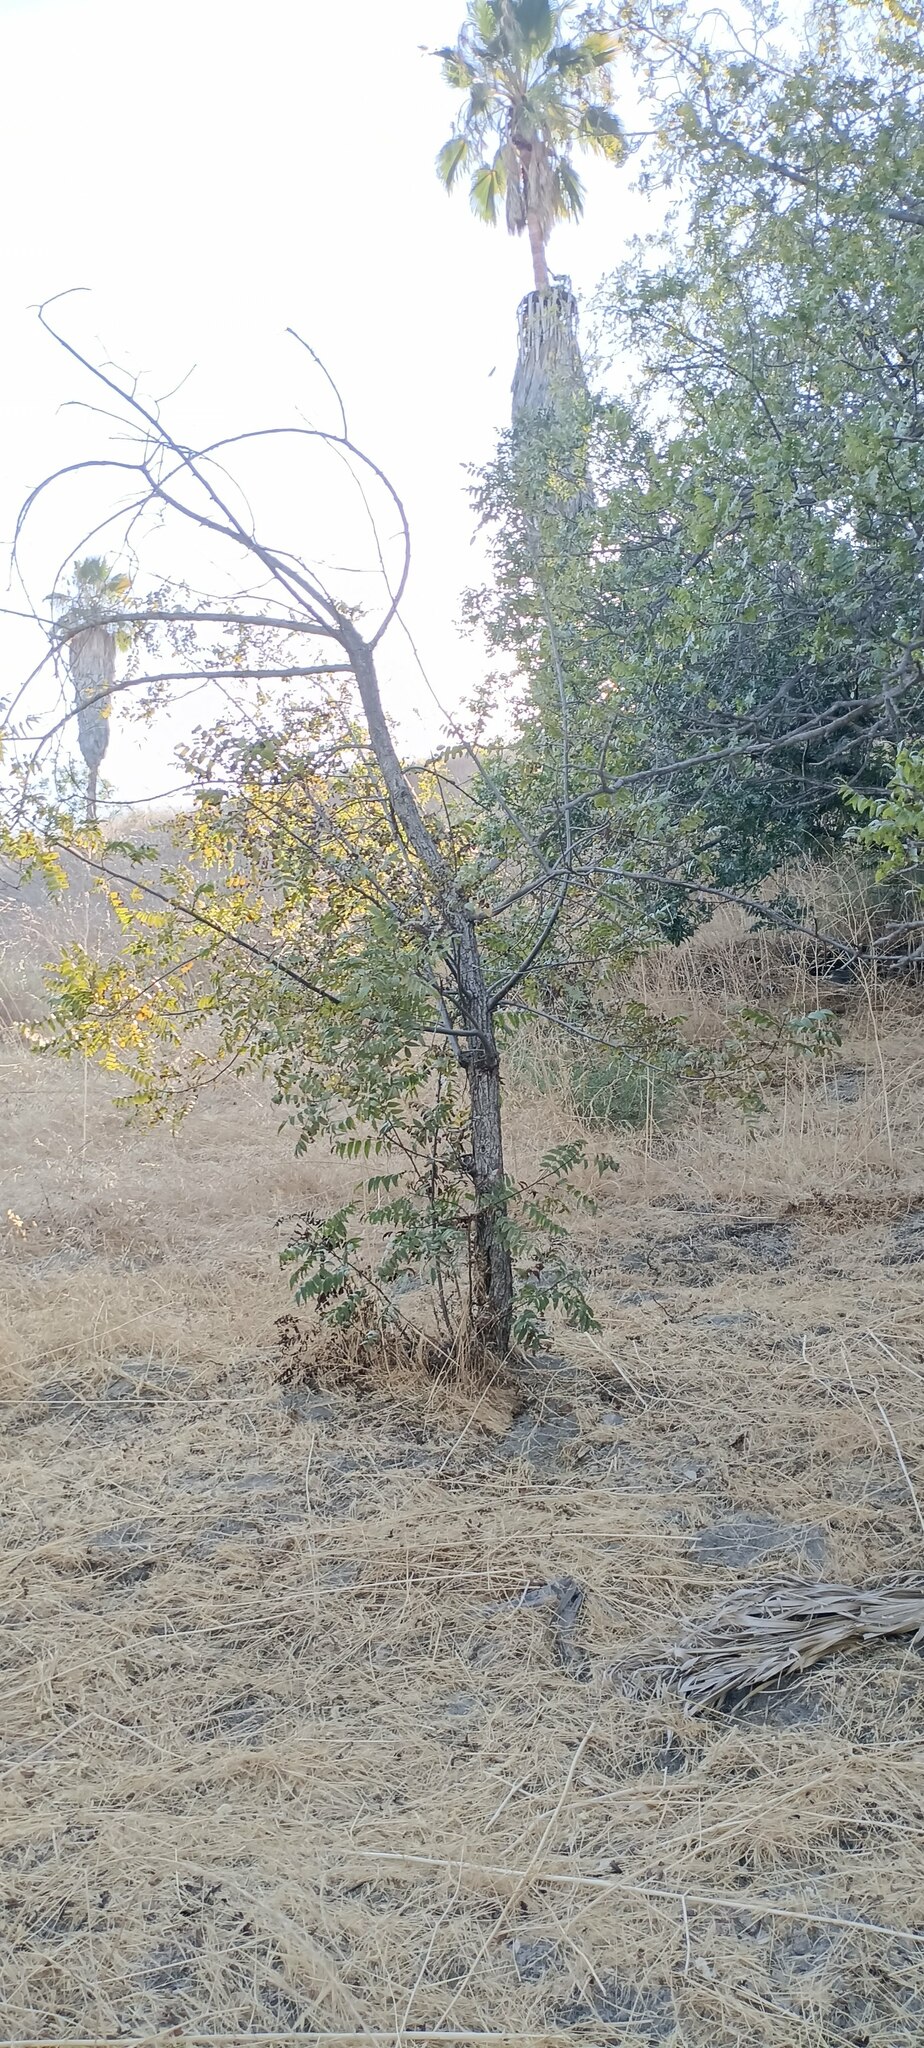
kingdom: Plantae
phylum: Tracheophyta
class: Magnoliopsida
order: Fagales
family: Juglandaceae
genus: Juglans
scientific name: Juglans californica
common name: Southern california black walnut
